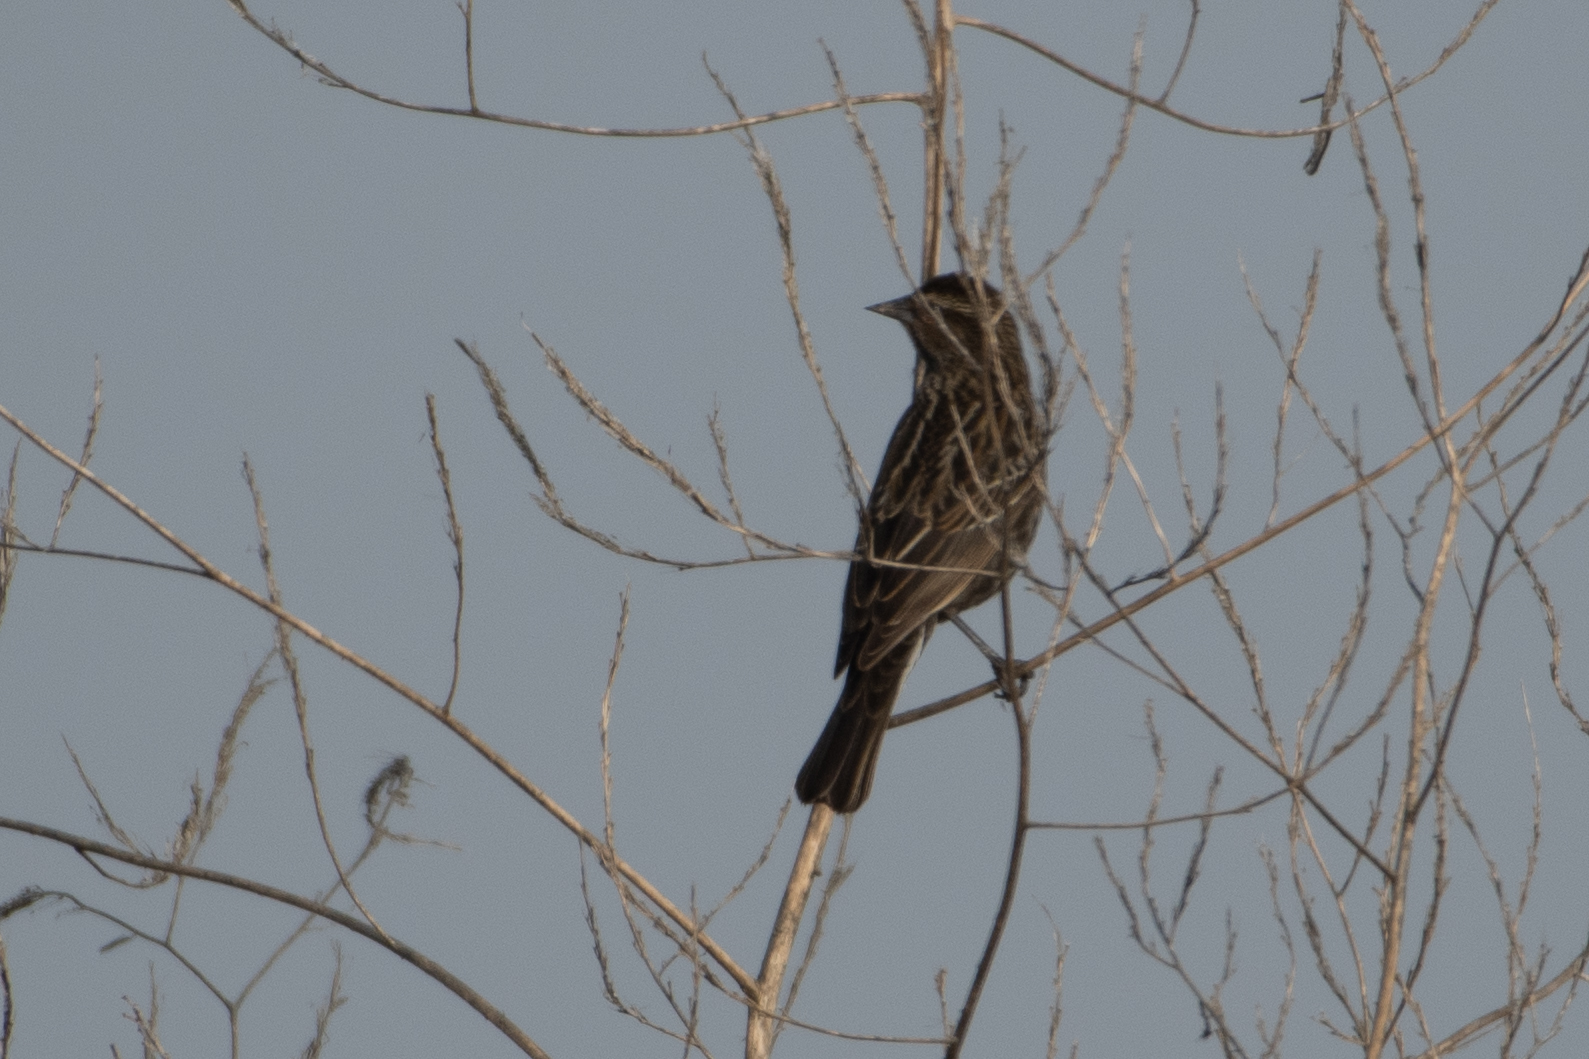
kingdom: Animalia
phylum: Chordata
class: Aves
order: Passeriformes
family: Icteridae
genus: Agelaius
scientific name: Agelaius phoeniceus
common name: Red-winged blackbird
